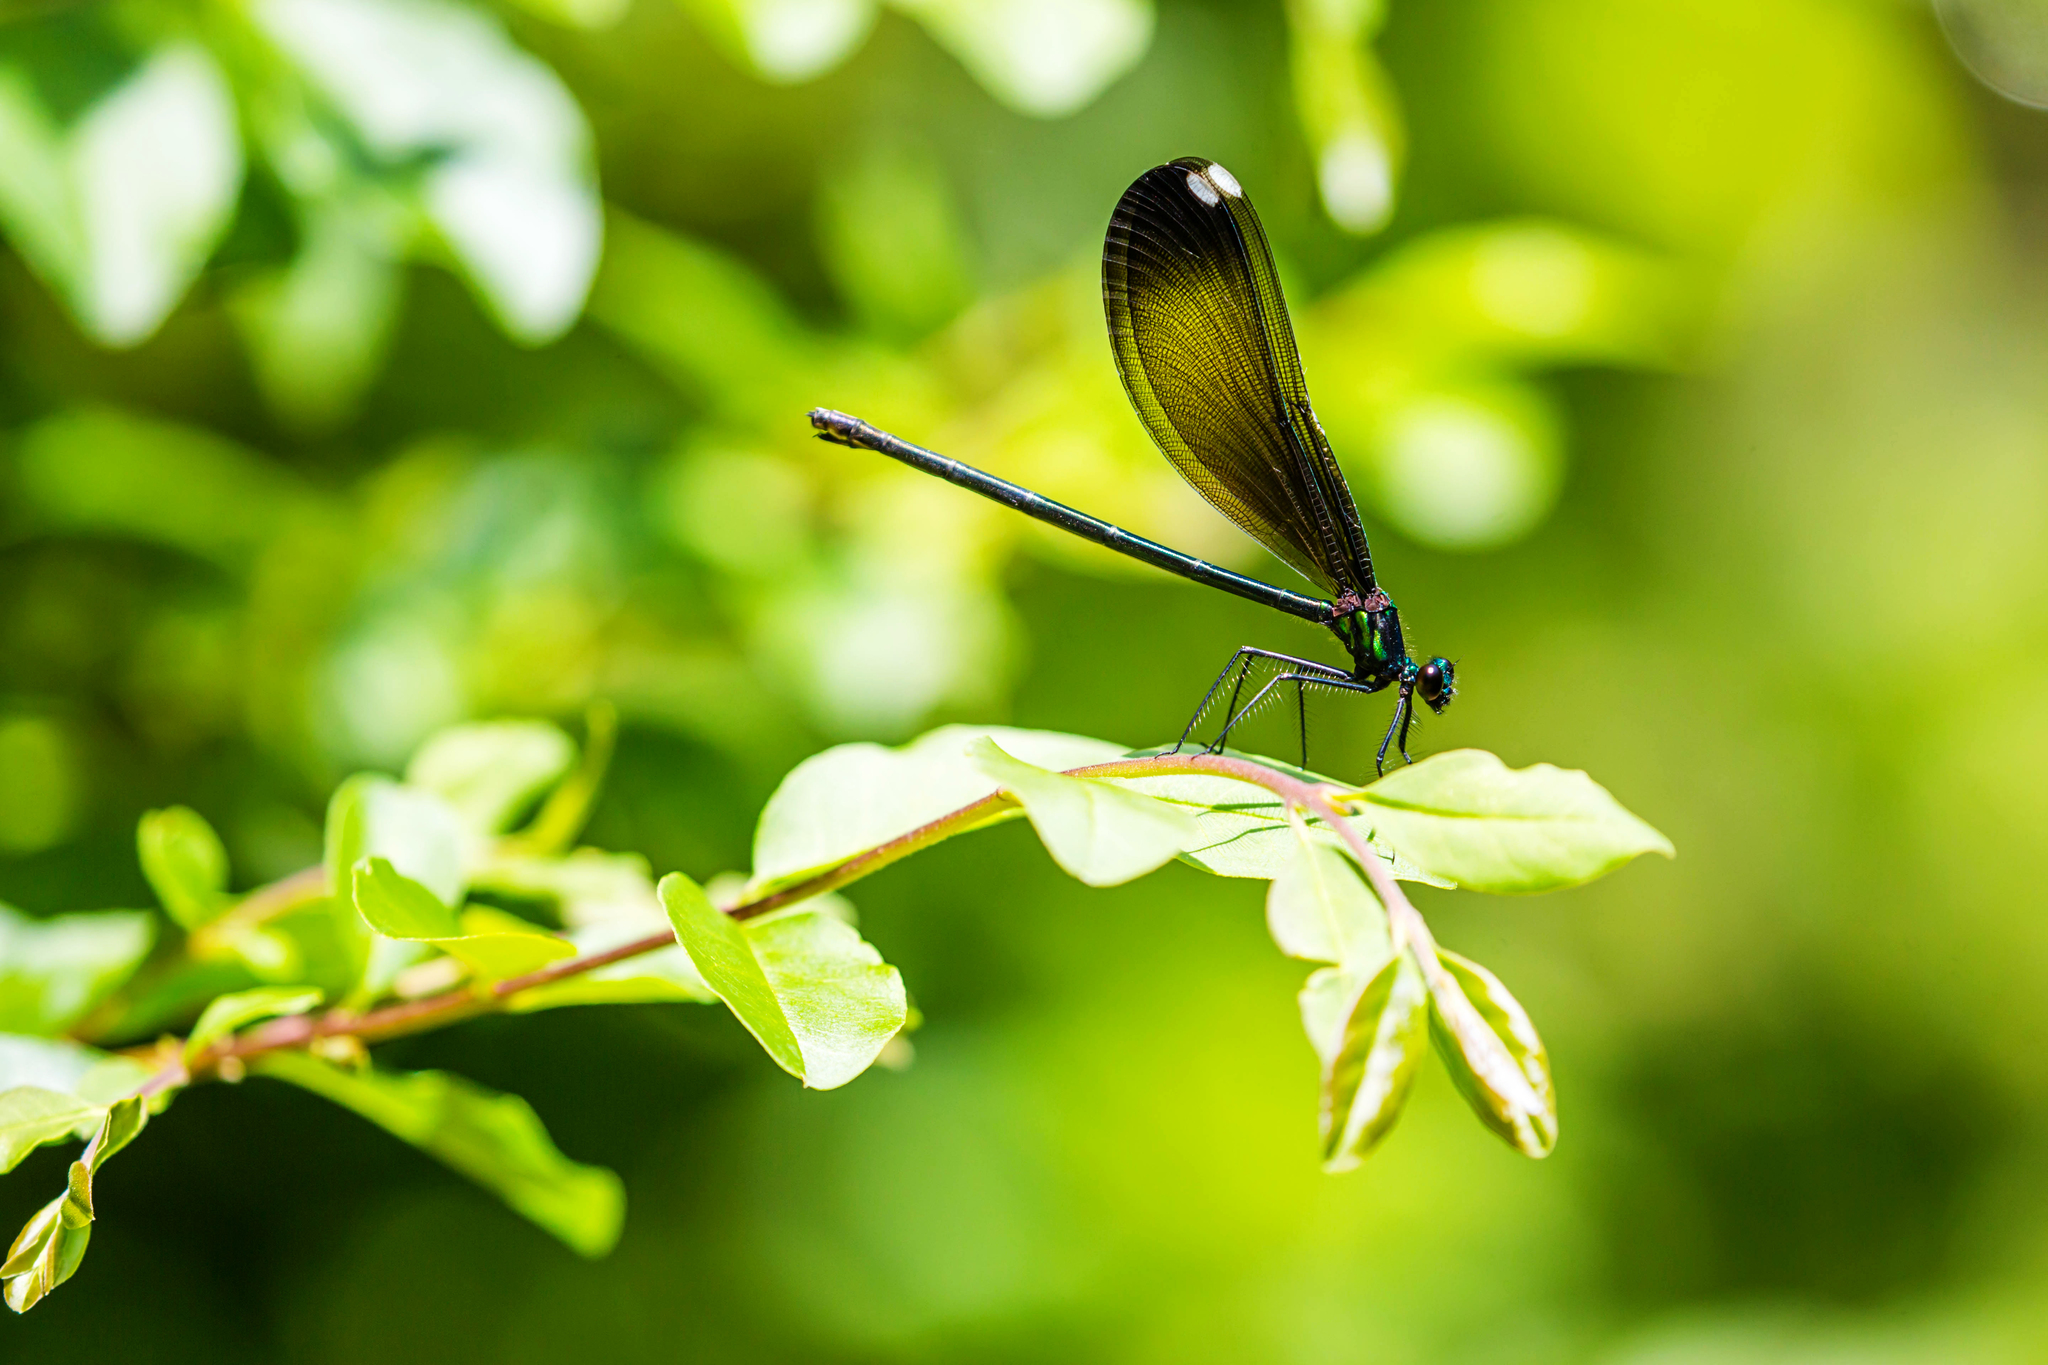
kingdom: Animalia
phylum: Arthropoda
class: Insecta
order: Odonata
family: Calopterygidae
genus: Calopteryx
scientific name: Calopteryx maculata
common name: Ebony jewelwing
